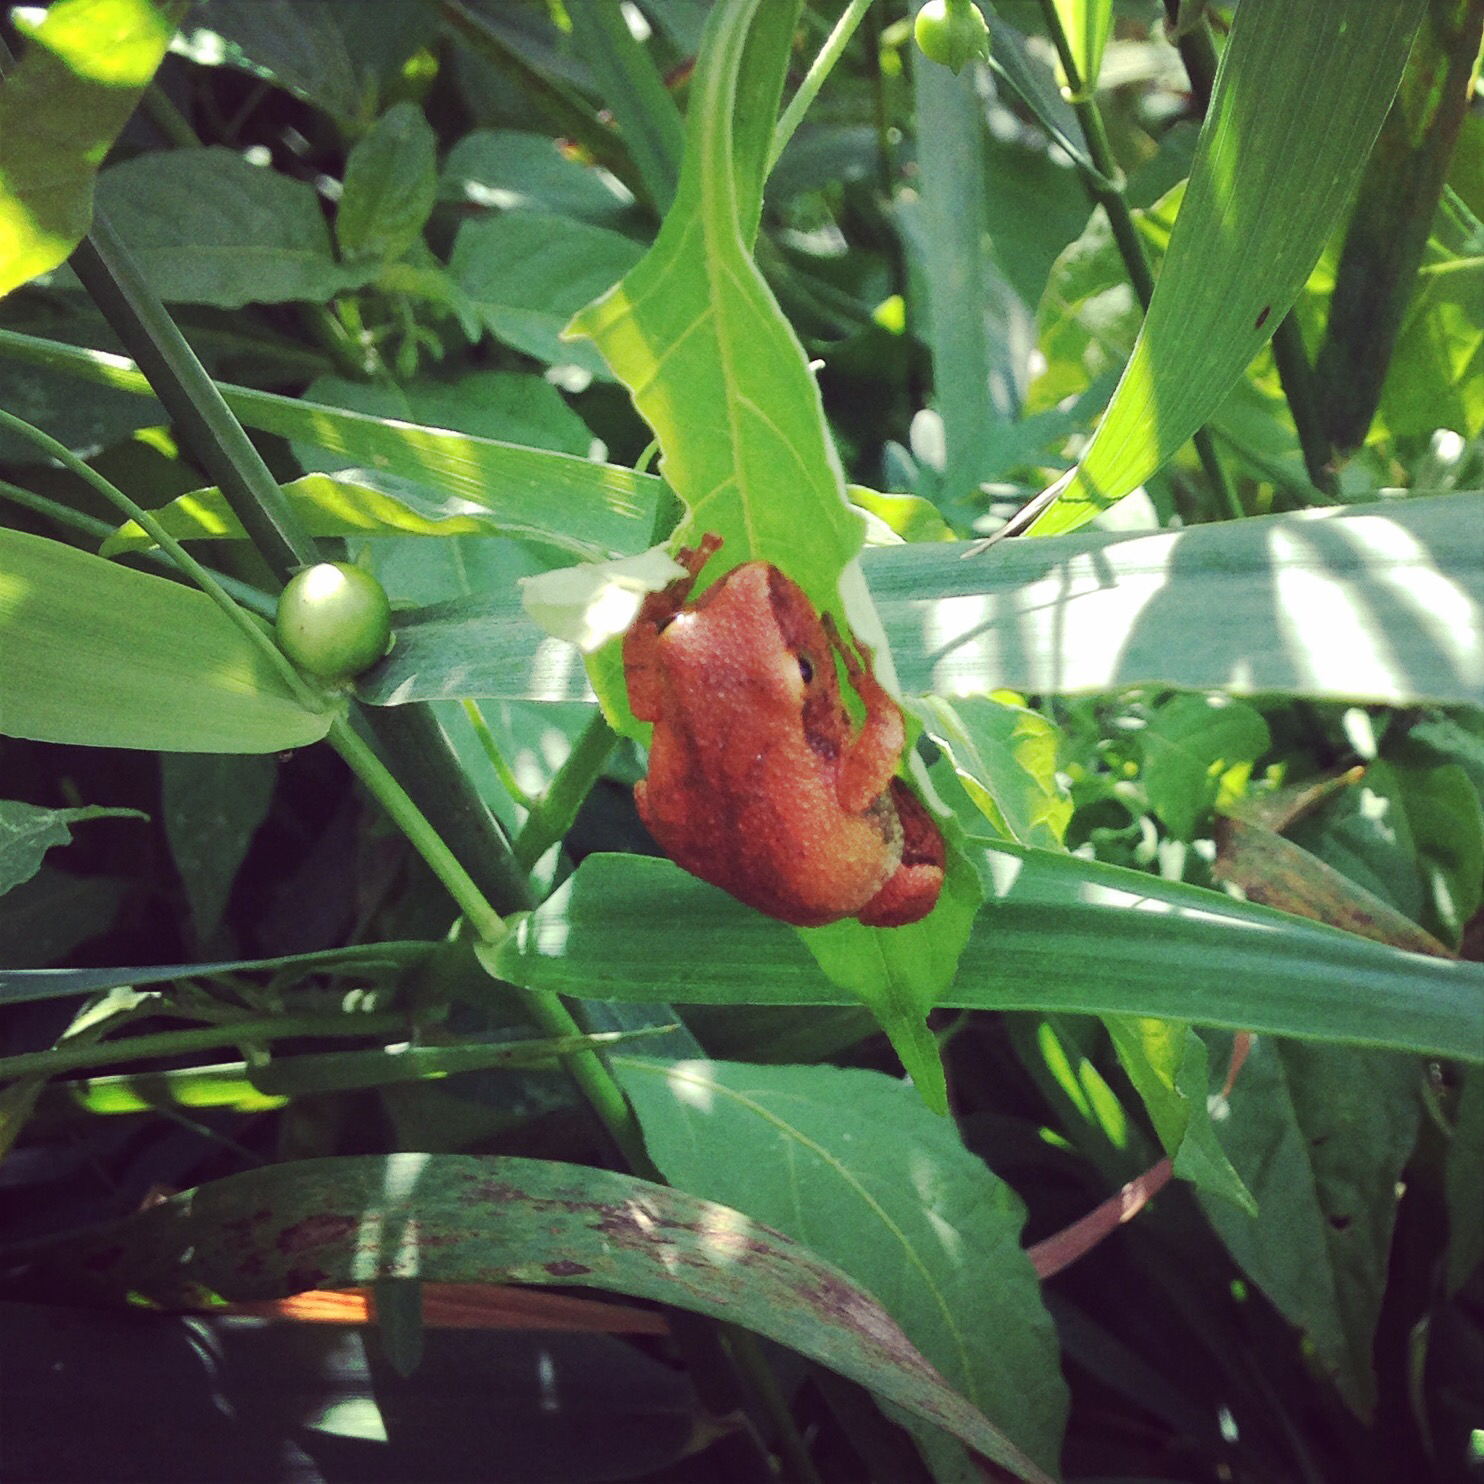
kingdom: Animalia
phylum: Chordata
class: Amphibia
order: Anura
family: Hylidae
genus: Pseudacris
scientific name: Pseudacris crucifer
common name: Spring peeper
